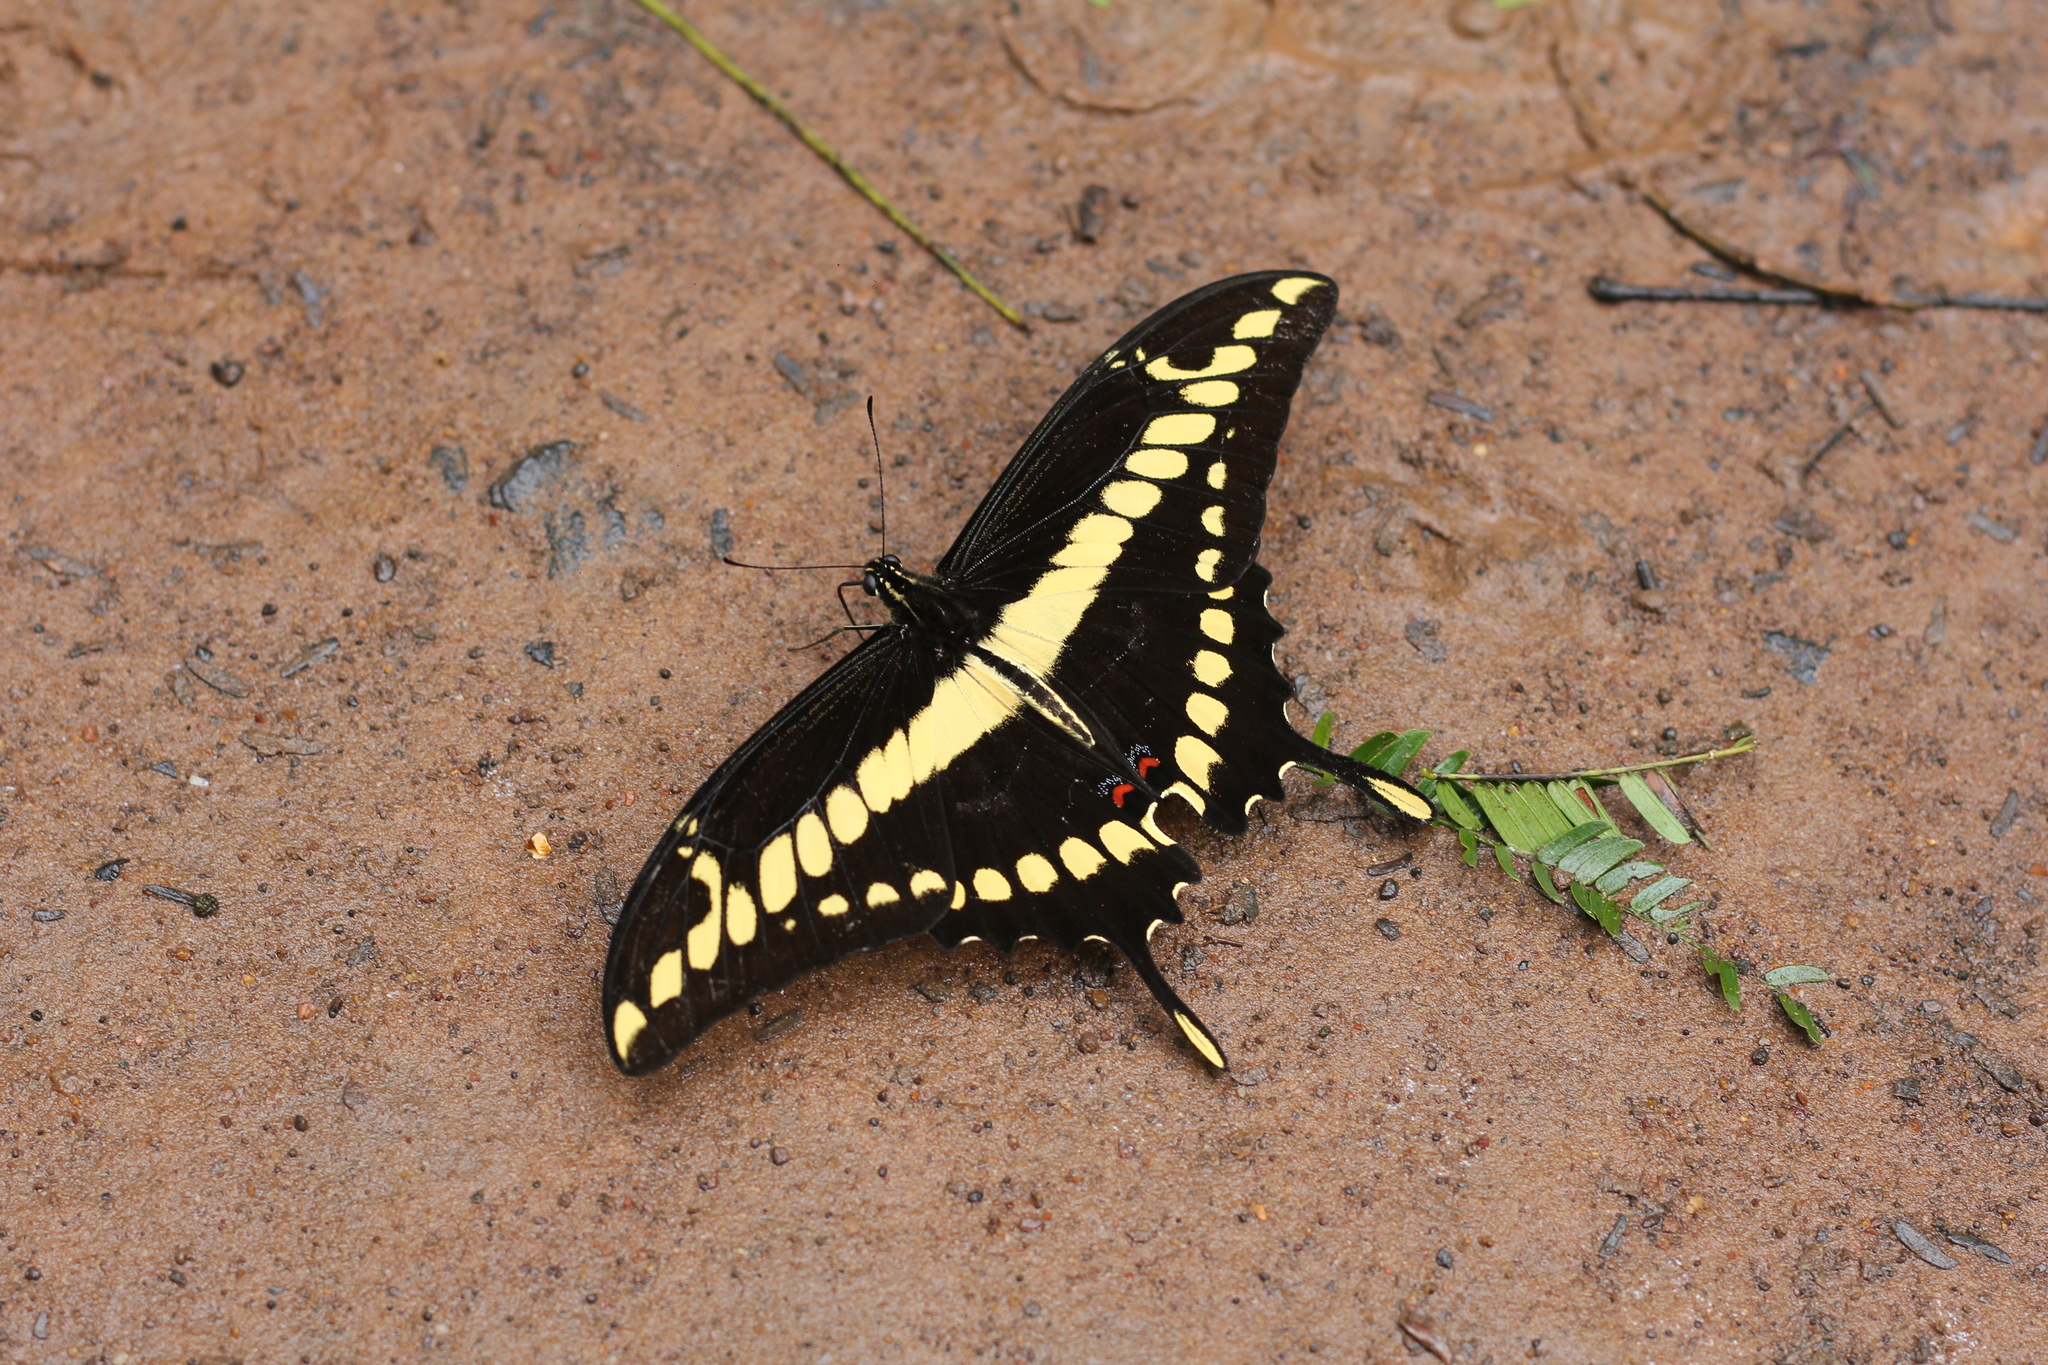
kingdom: Animalia
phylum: Arthropoda
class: Insecta
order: Lepidoptera
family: Papilionidae
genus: Papilio
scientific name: Papilio thoas
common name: King swallowtail
